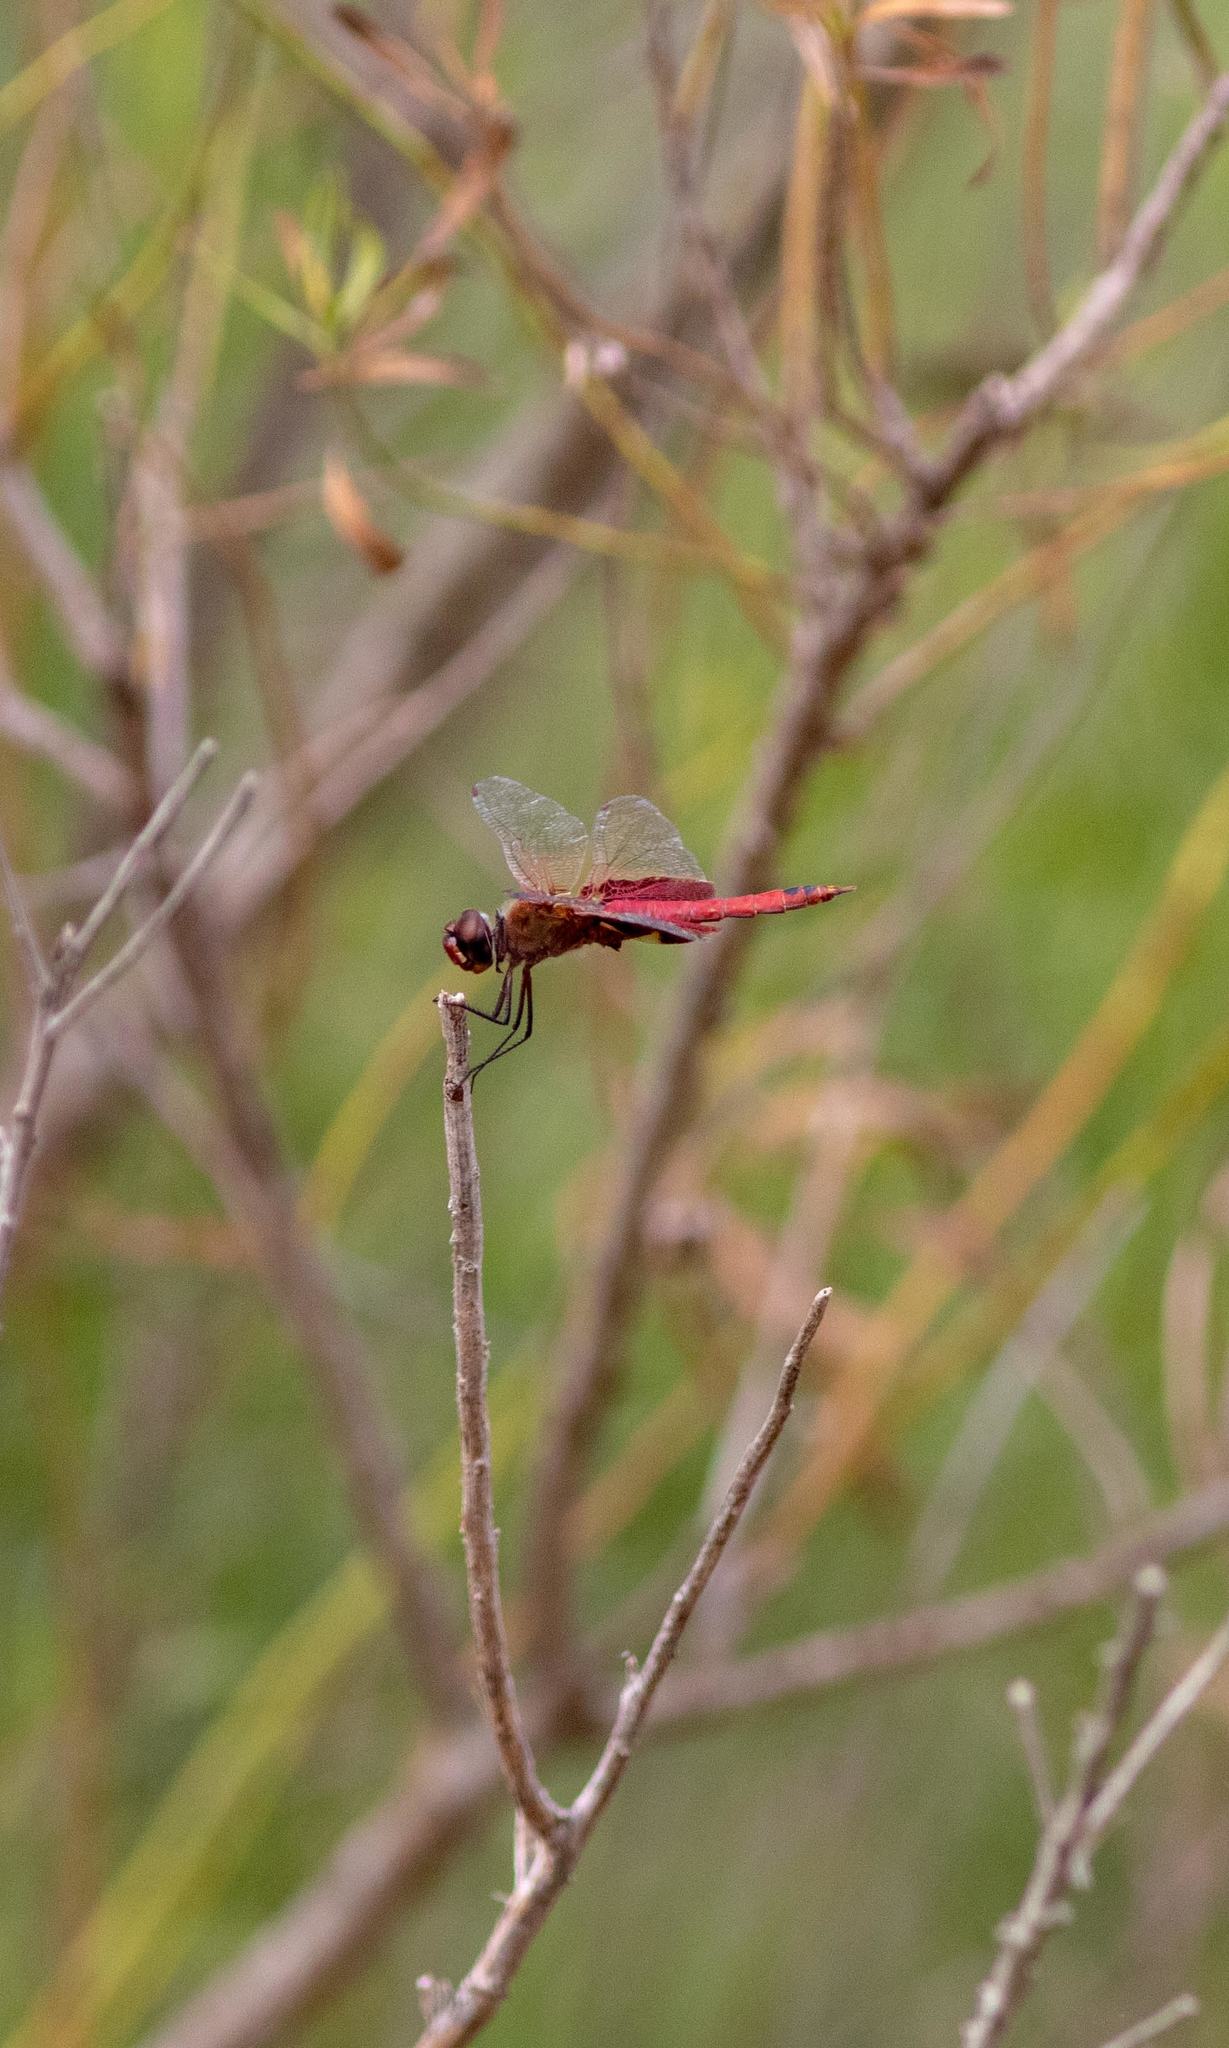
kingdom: Animalia
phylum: Arthropoda
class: Insecta
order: Odonata
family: Libellulidae
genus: Tramea
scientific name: Tramea onusta
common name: Red saddlebags
